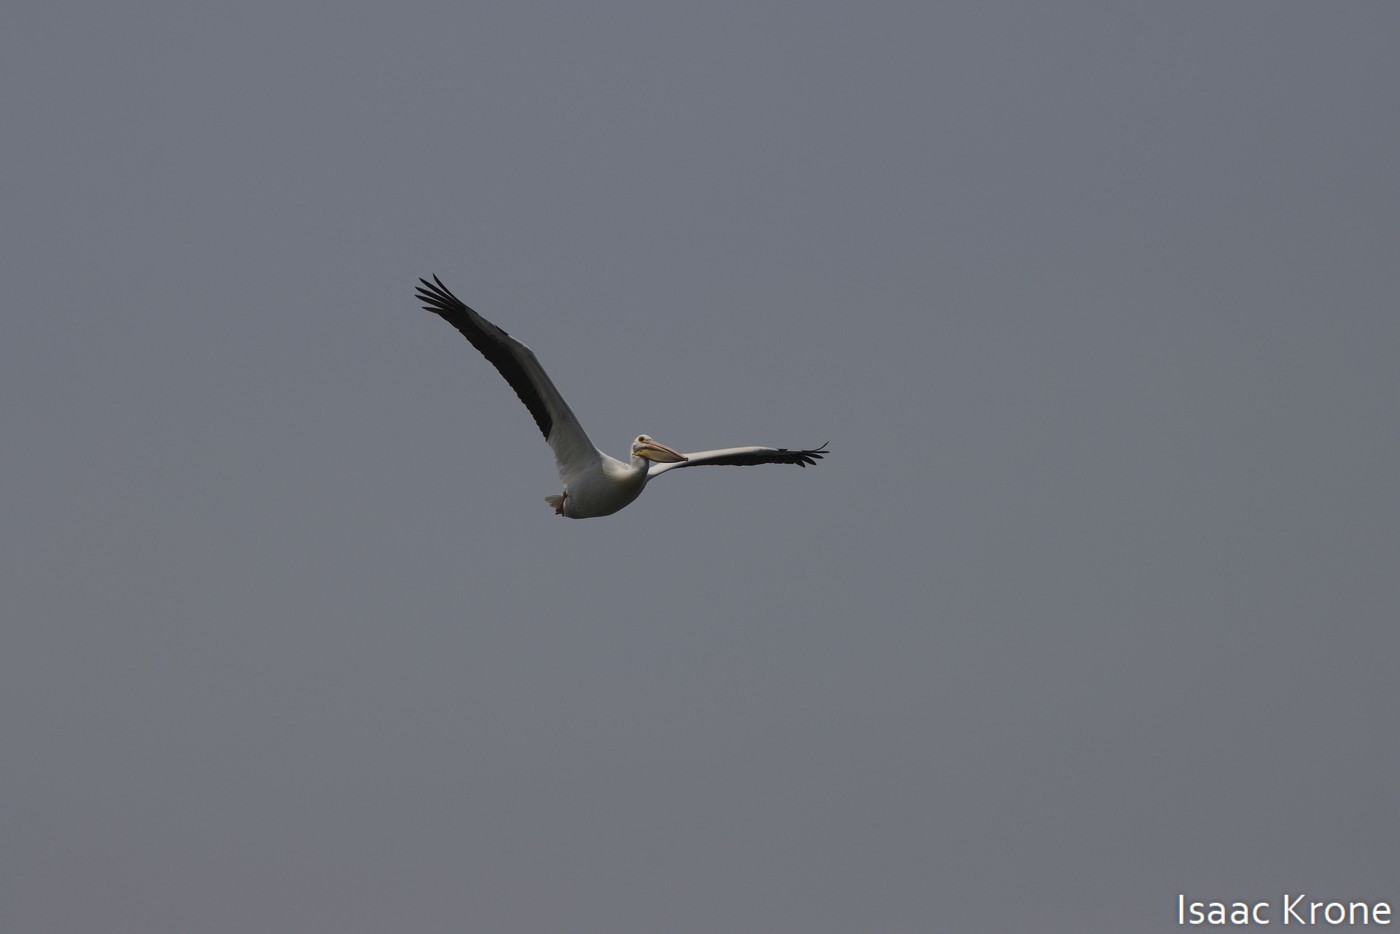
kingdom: Animalia
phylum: Chordata
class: Aves
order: Pelecaniformes
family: Pelecanidae
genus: Pelecanus
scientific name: Pelecanus erythrorhynchos
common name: American white pelican
